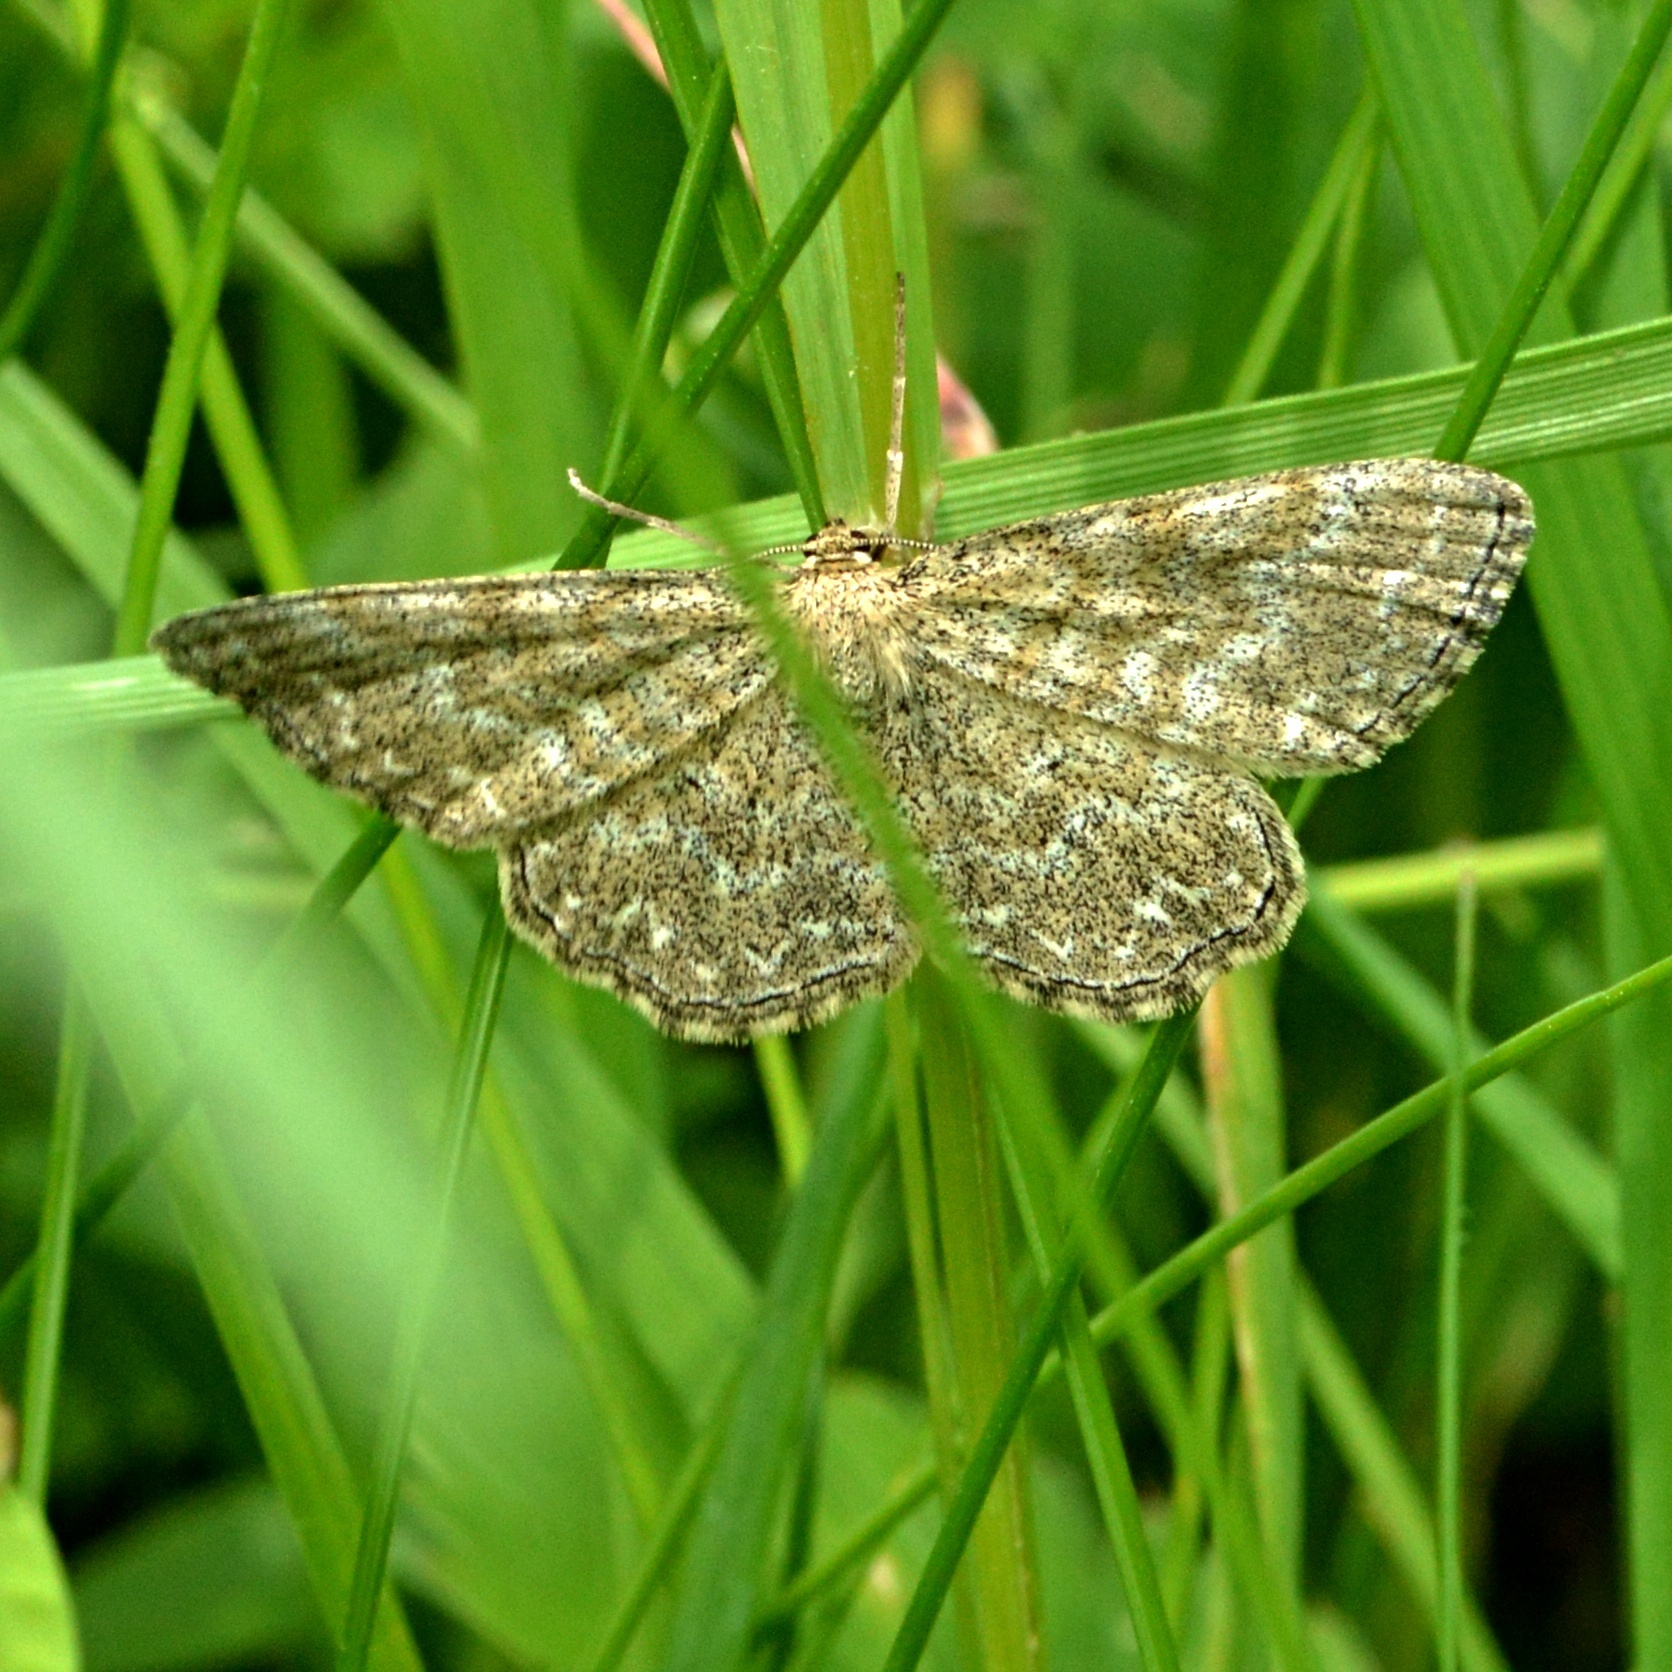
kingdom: Animalia
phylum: Arthropoda
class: Insecta
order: Lepidoptera
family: Geometridae
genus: Scopula
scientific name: Scopula immorata
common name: Lewes wave
